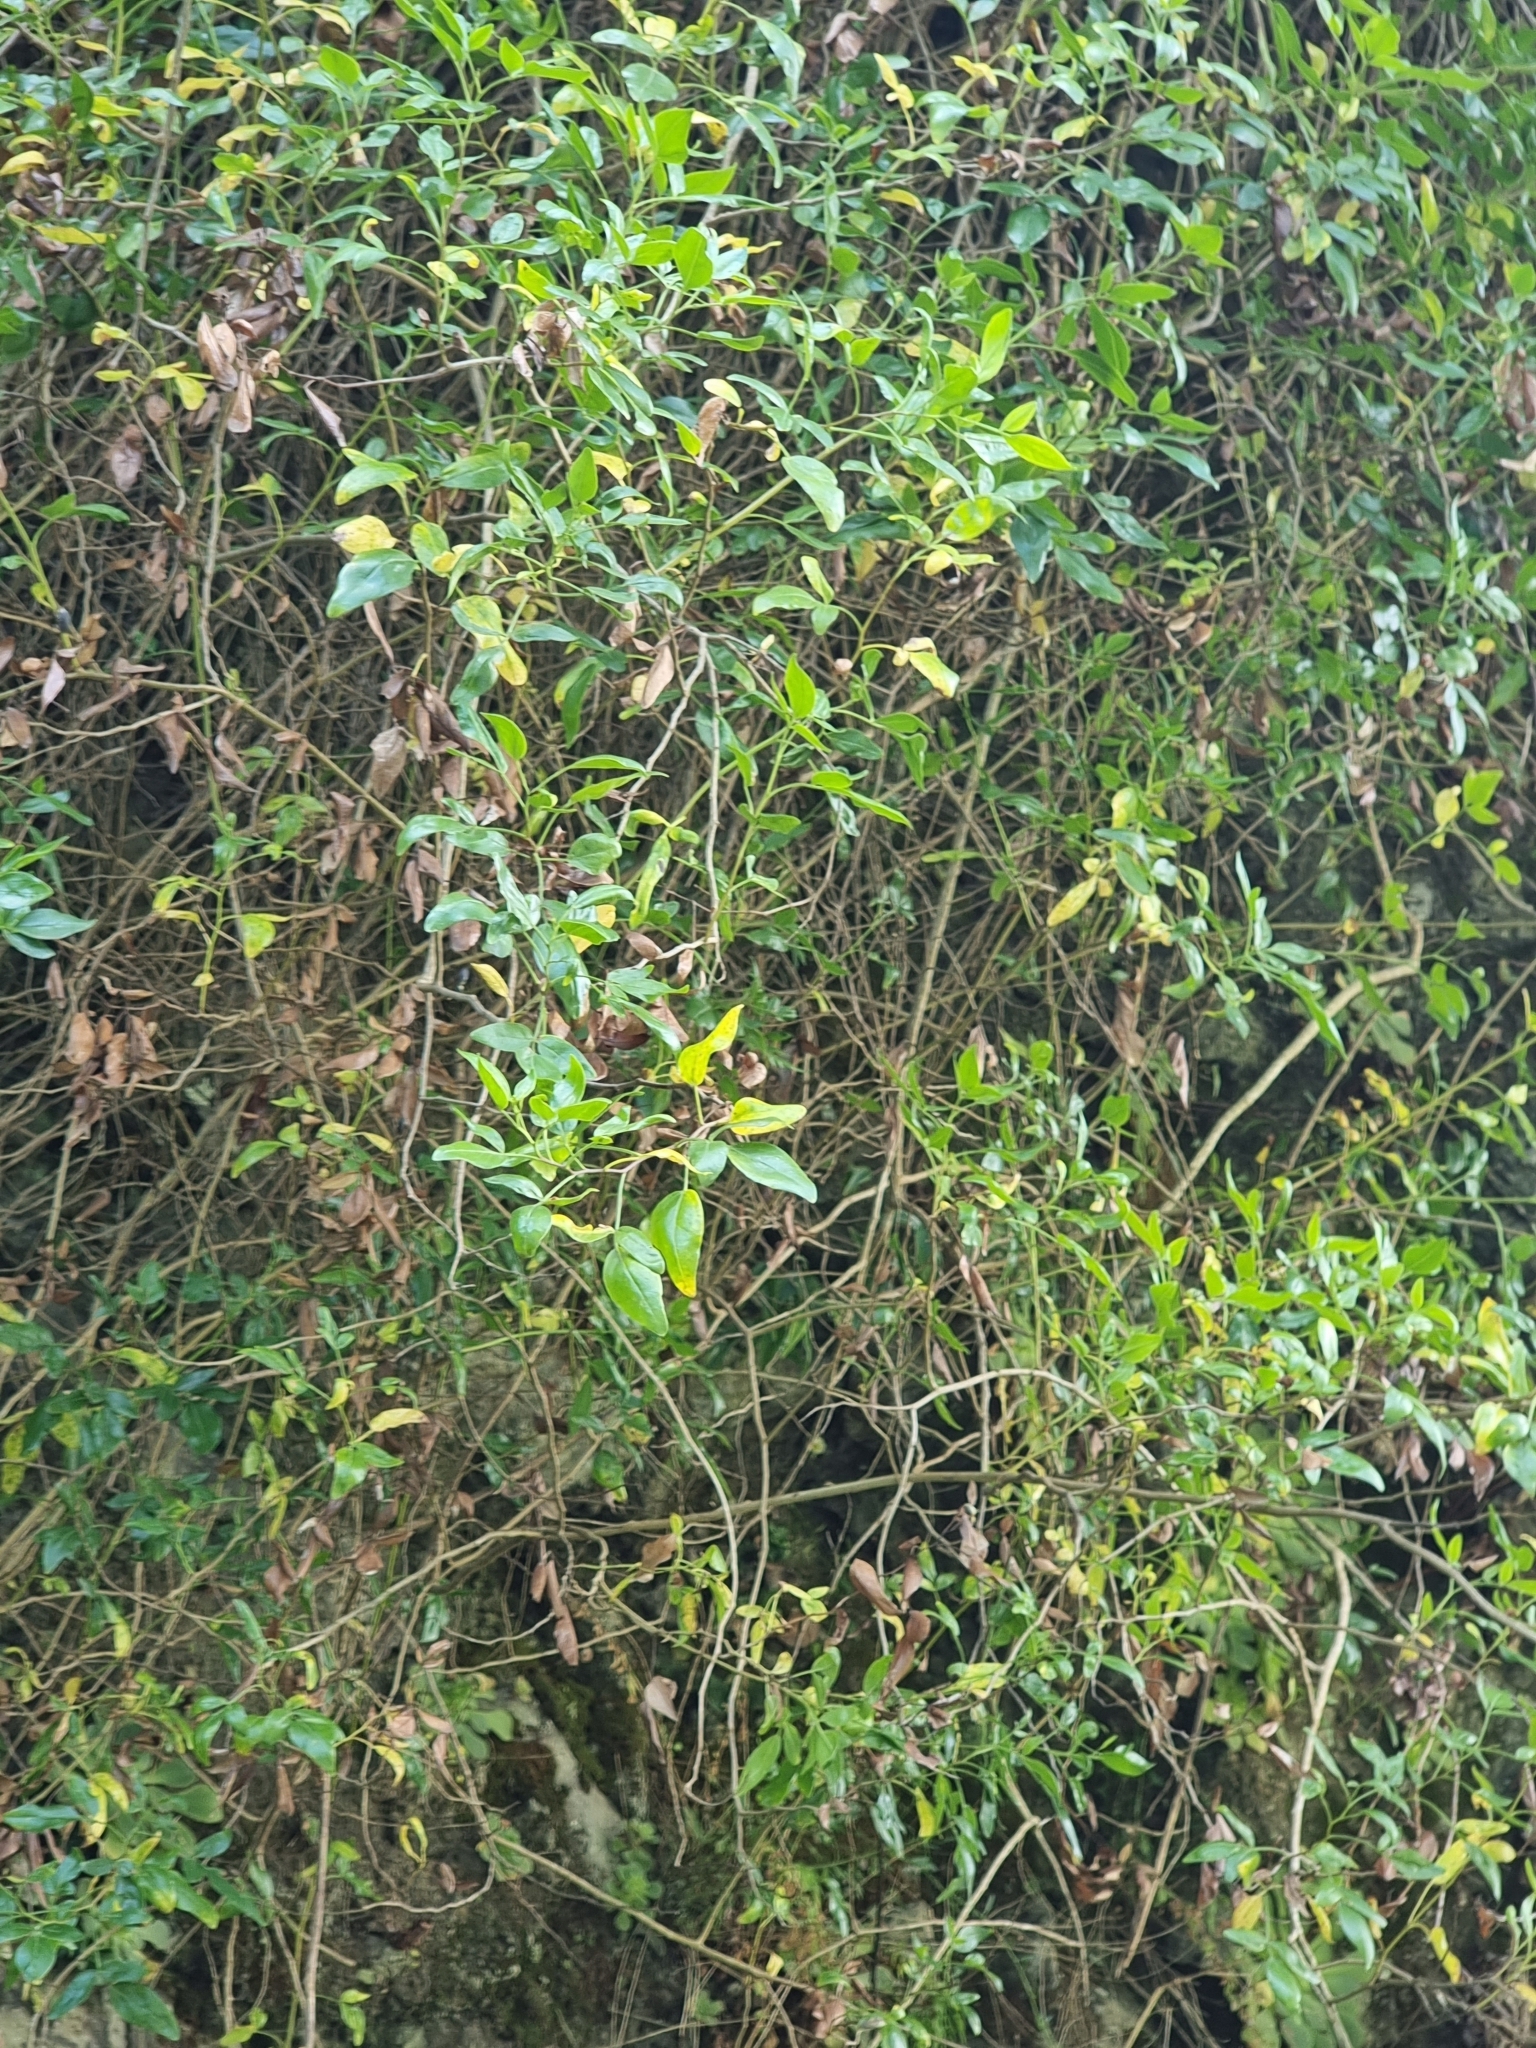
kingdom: Plantae
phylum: Tracheophyta
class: Magnoliopsida
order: Lamiales
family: Oleaceae
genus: Chrysojasminum
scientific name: Chrysojasminum odoratissimum
